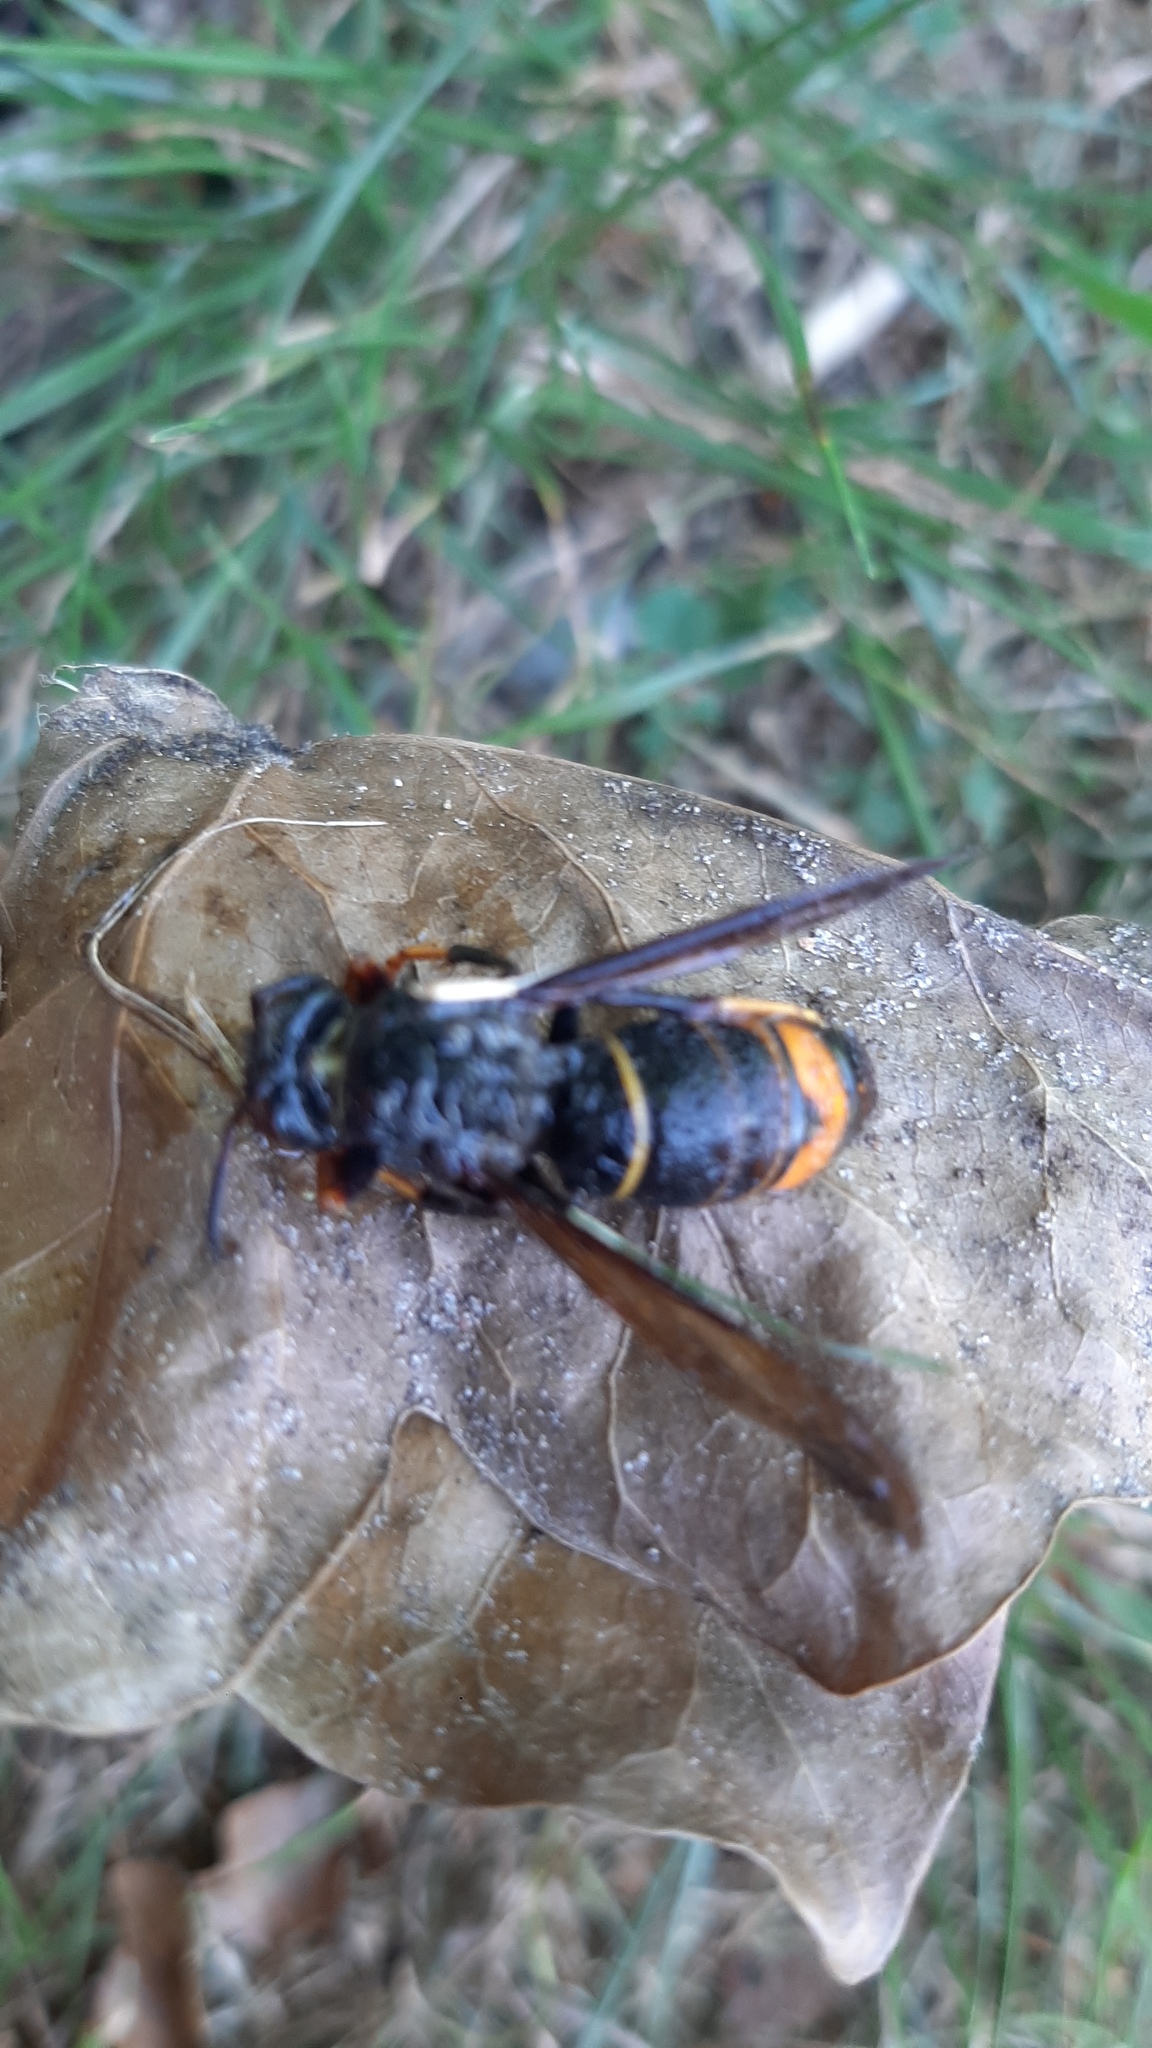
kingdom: Animalia
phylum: Arthropoda
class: Insecta
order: Hymenoptera
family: Vespidae
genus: Vespa
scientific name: Vespa velutina
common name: Asian hornet
